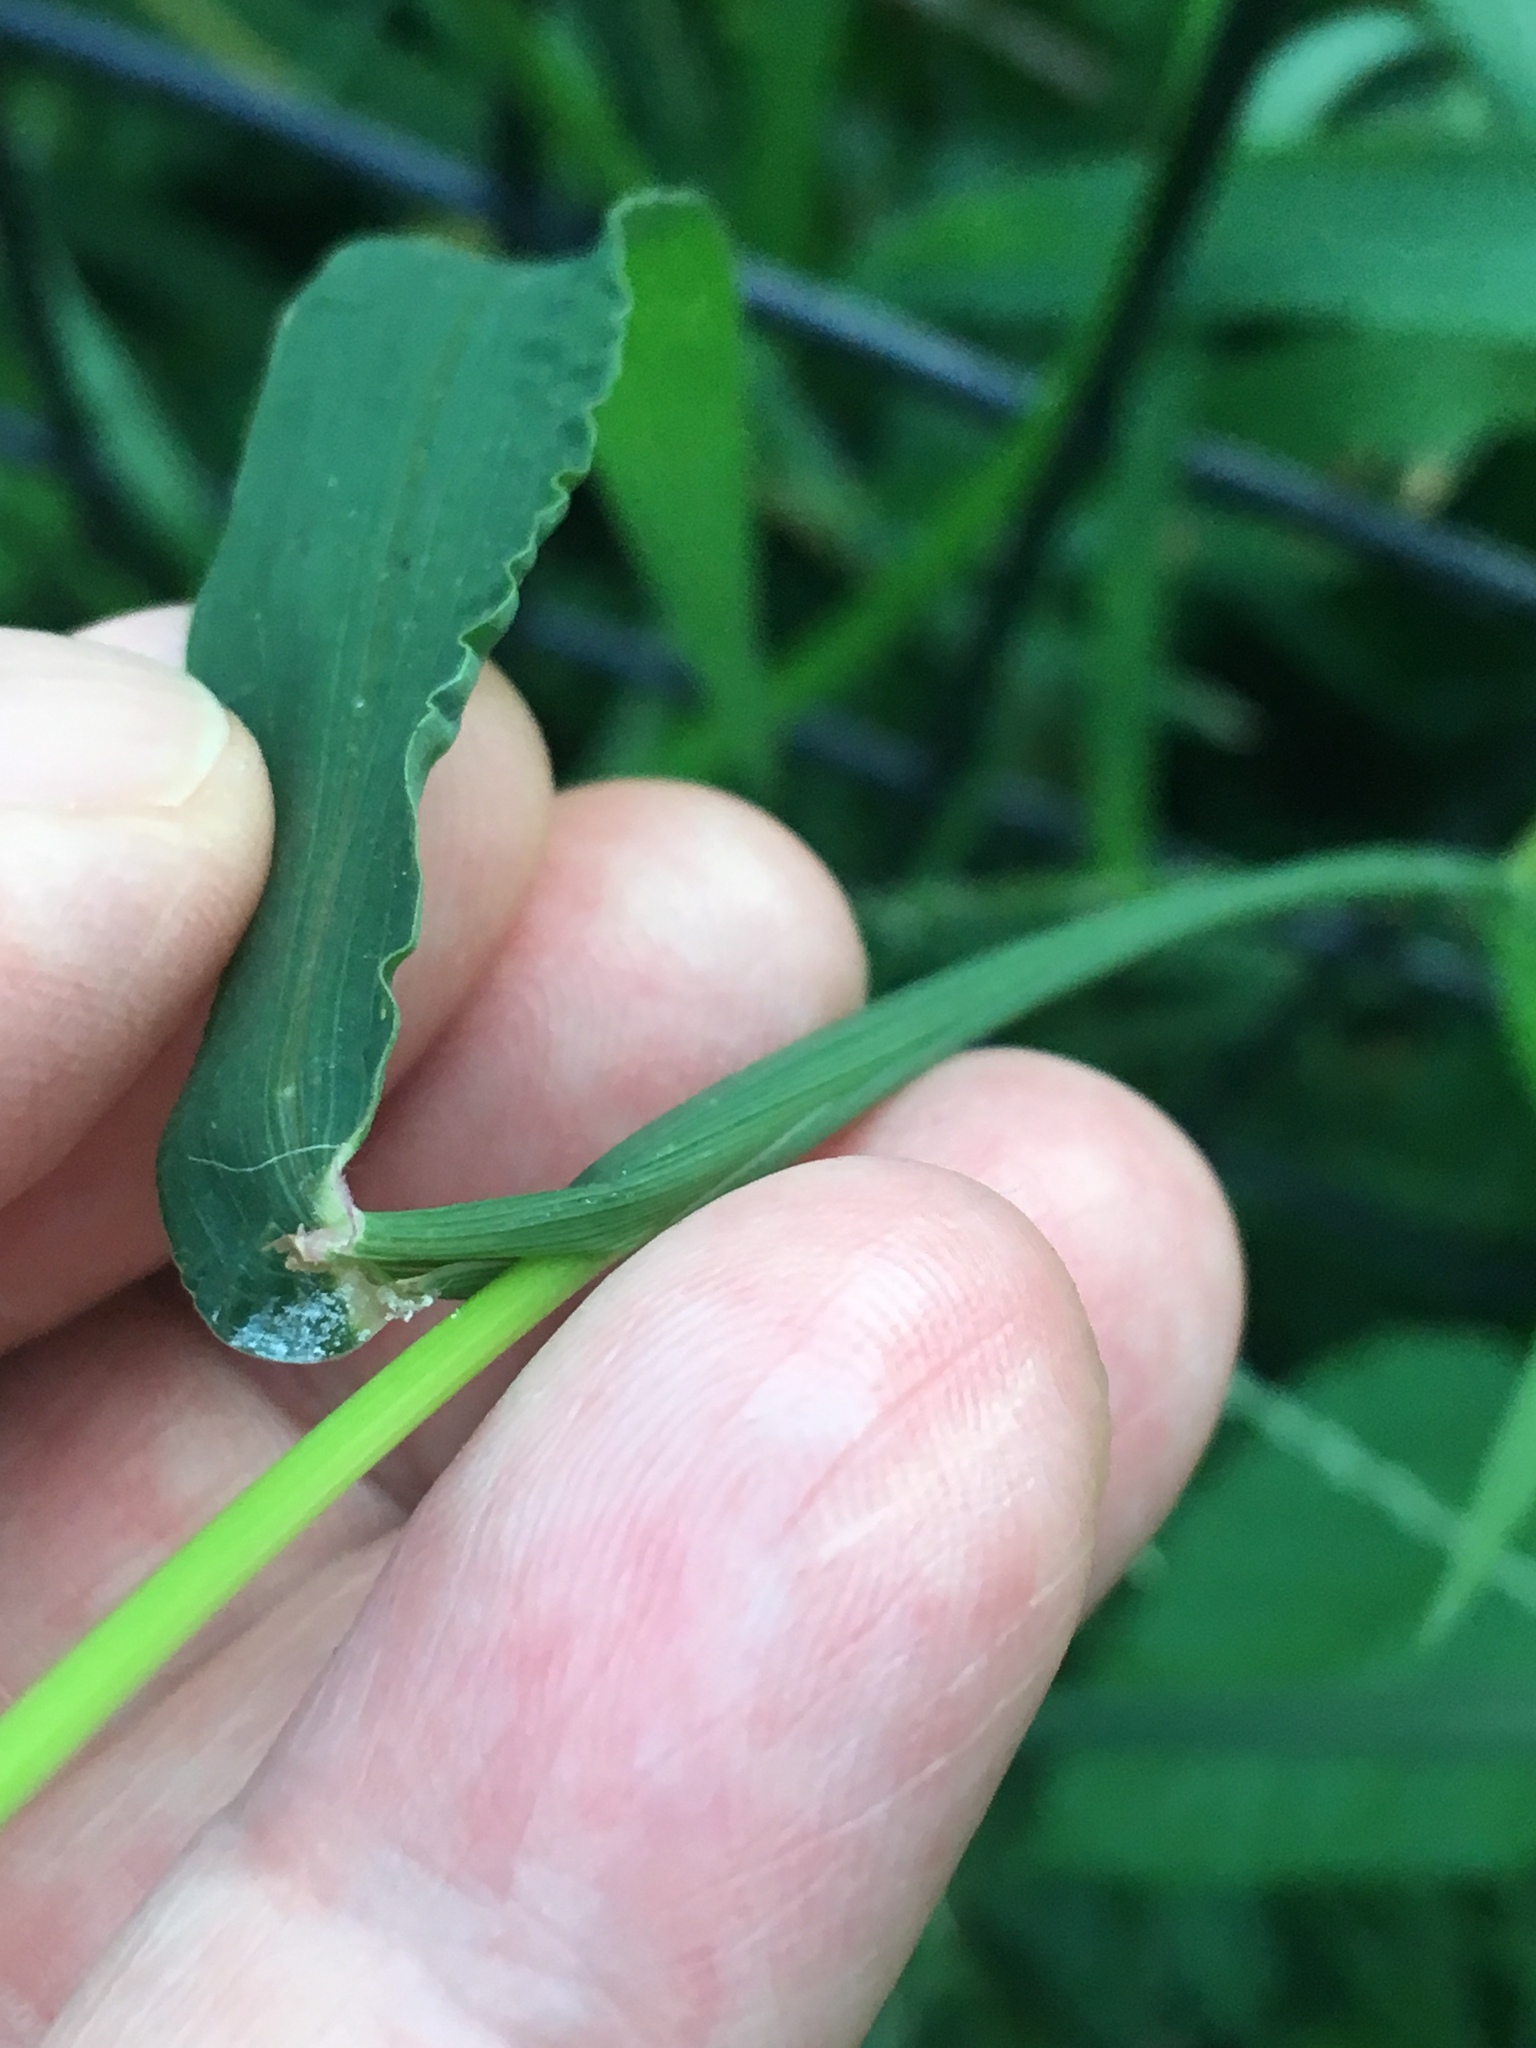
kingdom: Plantae
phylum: Tracheophyta
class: Liliopsida
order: Poales
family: Poaceae
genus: Digitaria
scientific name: Digitaria ischaemum
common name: Smooth crabgrass
